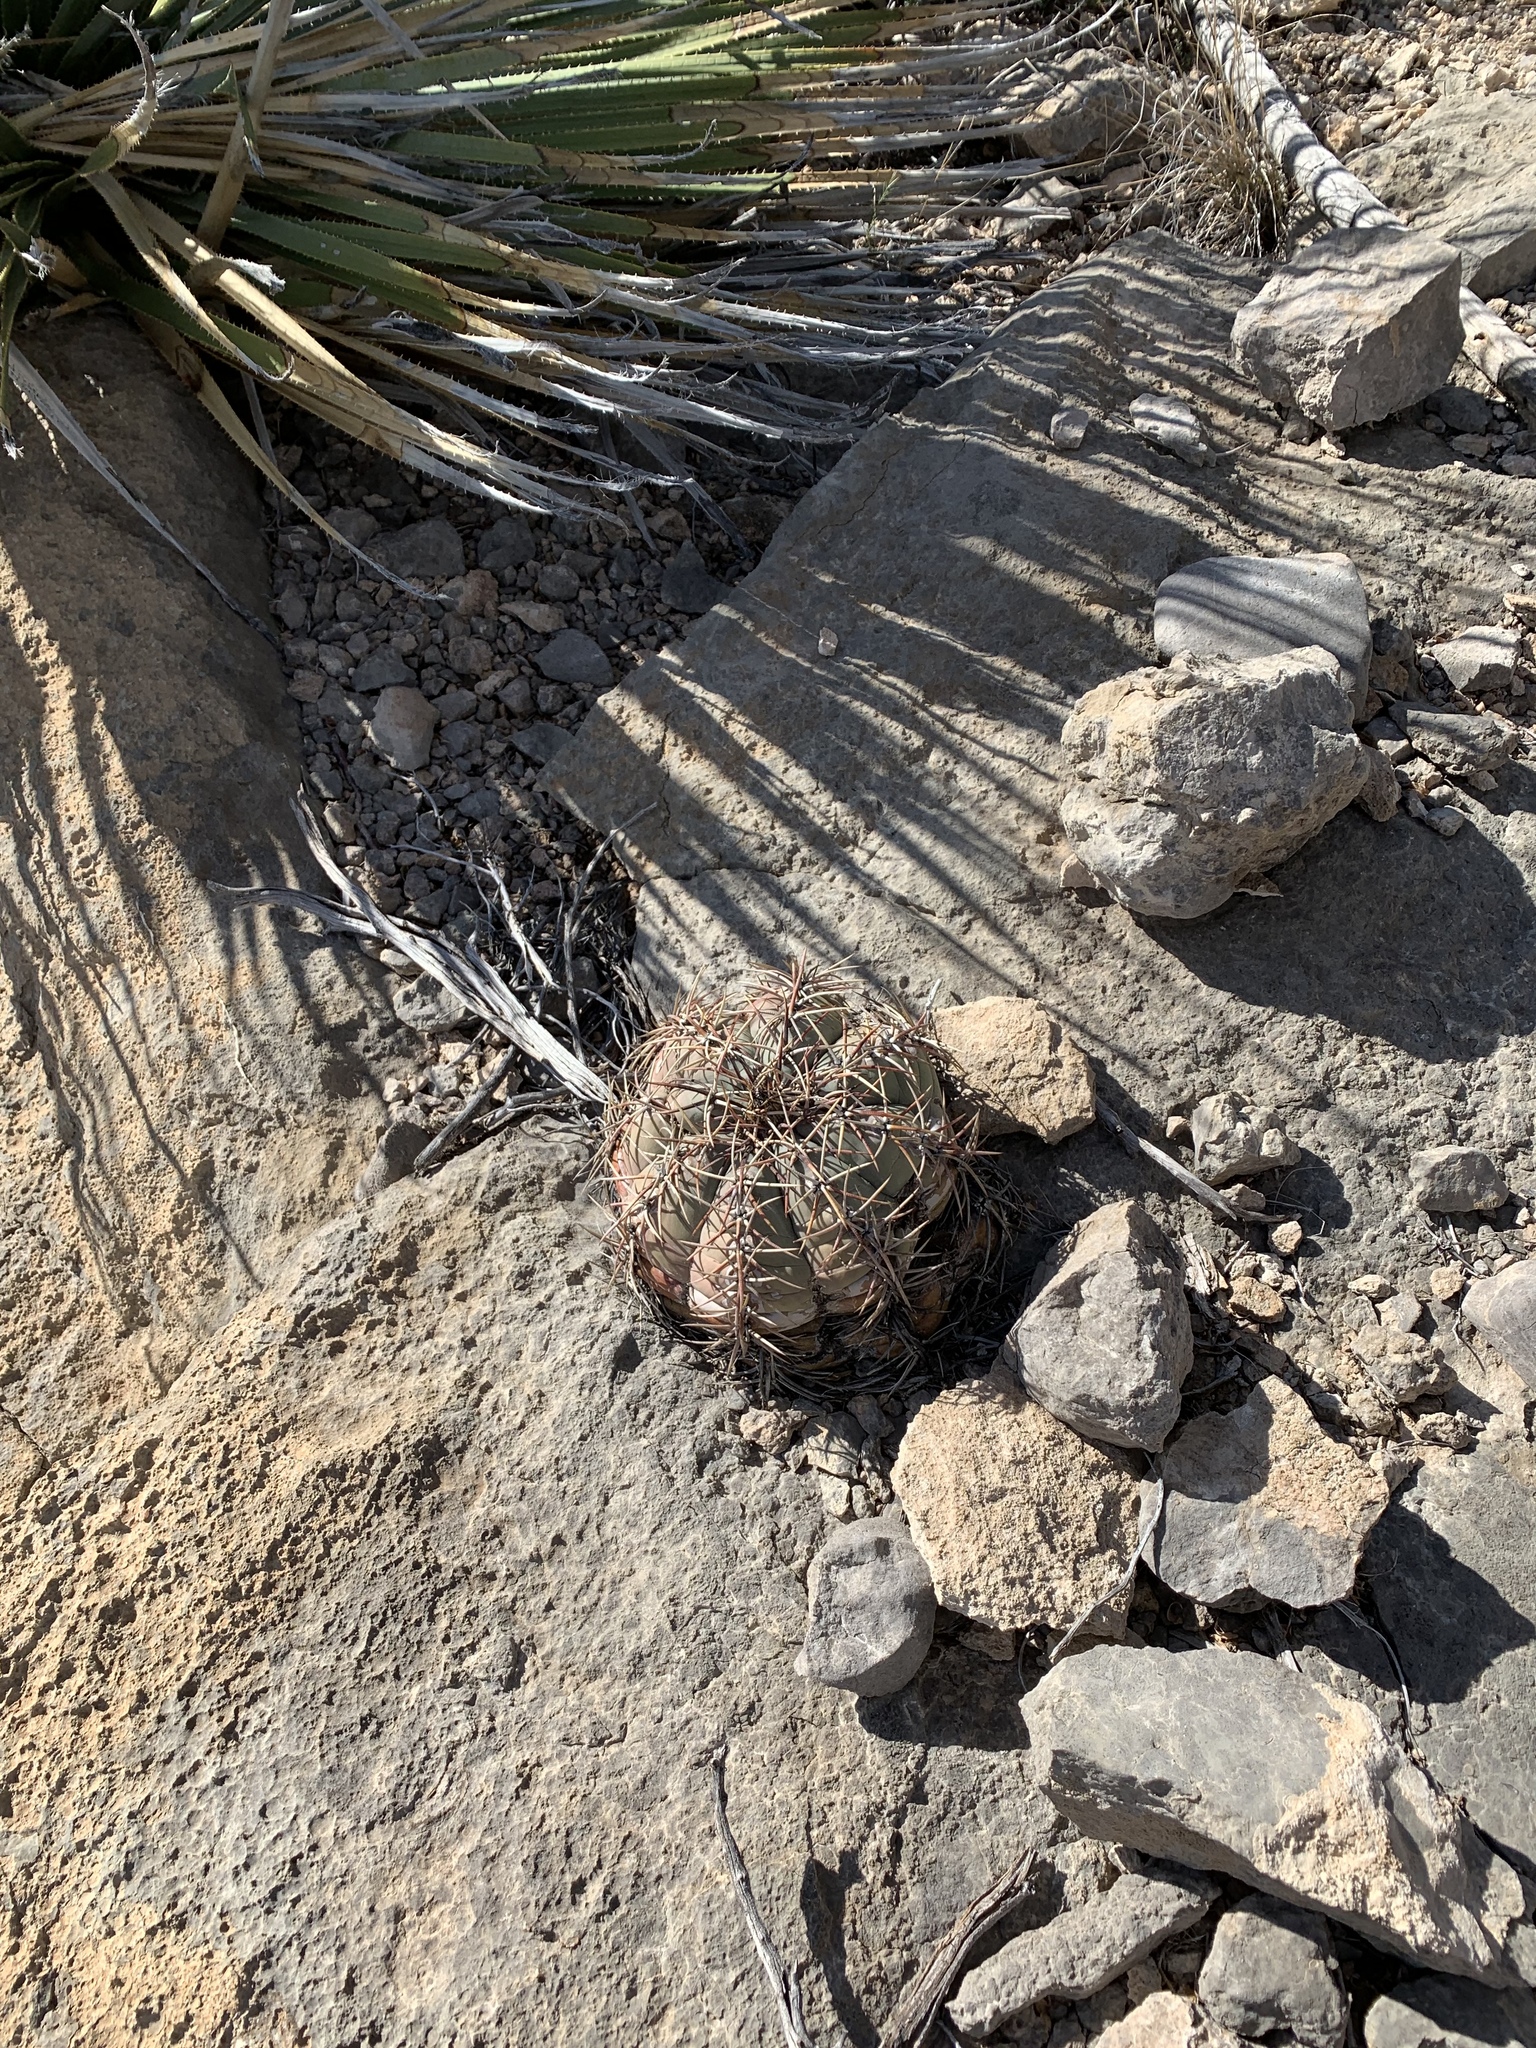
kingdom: Plantae
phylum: Tracheophyta
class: Magnoliopsida
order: Caryophyllales
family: Cactaceae
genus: Echinocactus
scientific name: Echinocactus horizonthalonius
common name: Devilshead
